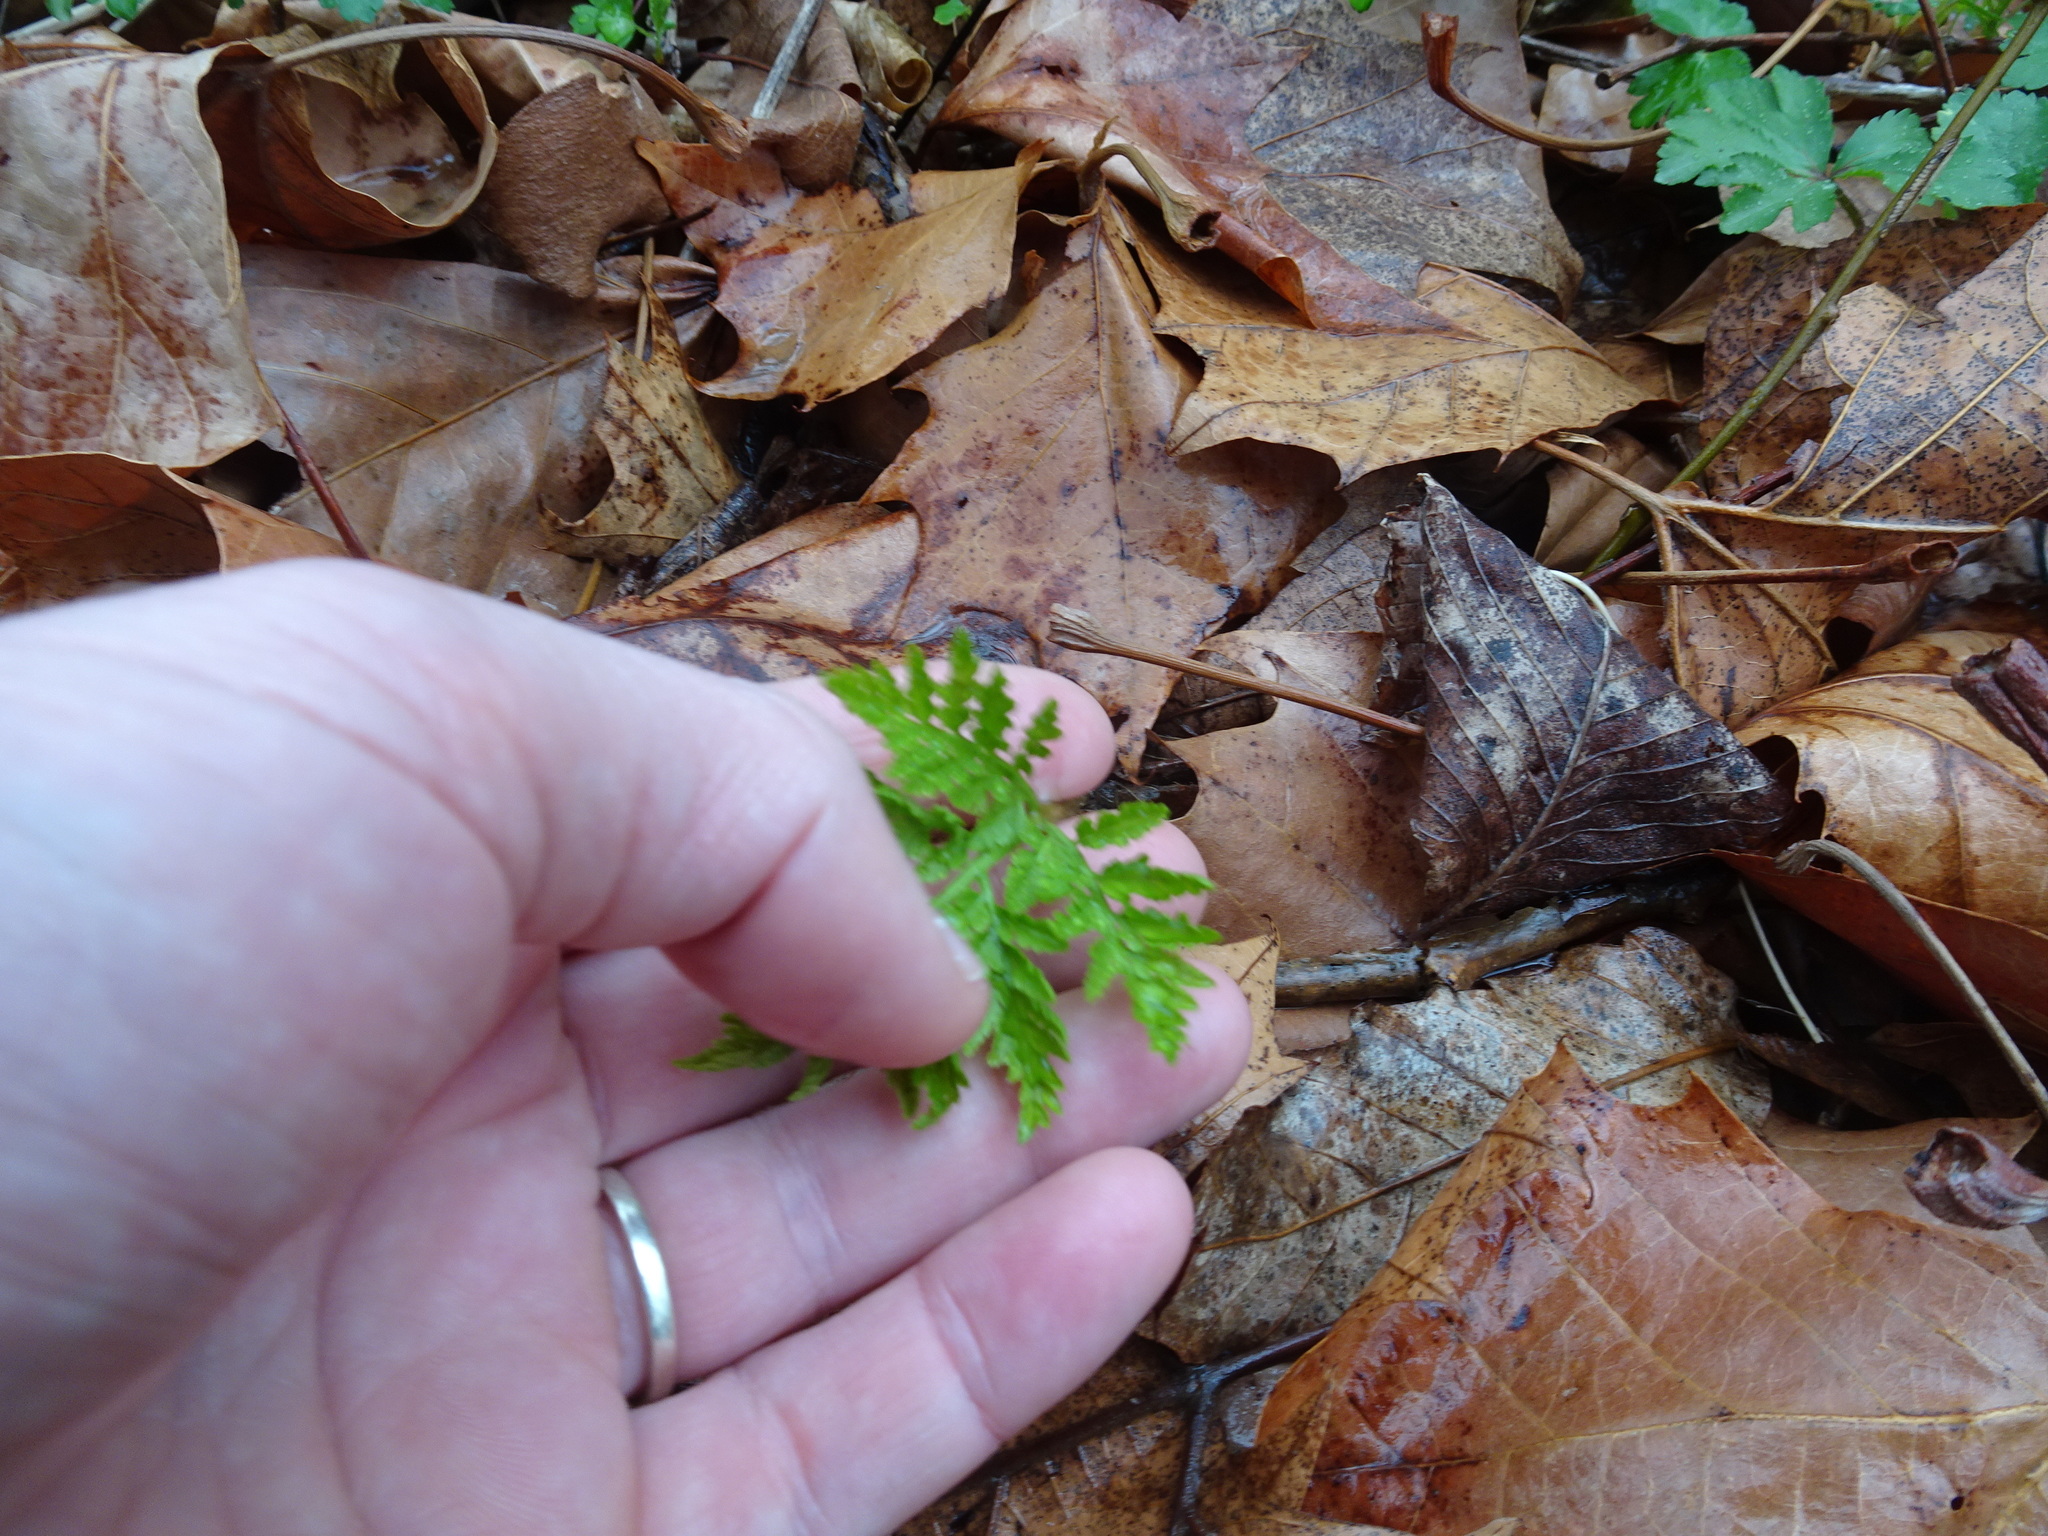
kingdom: Plantae
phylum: Tracheophyta
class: Polypodiopsida
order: Ophioglossales
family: Ophioglossaceae
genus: Botrypus
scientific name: Botrypus virginianus
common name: Common grapefern
